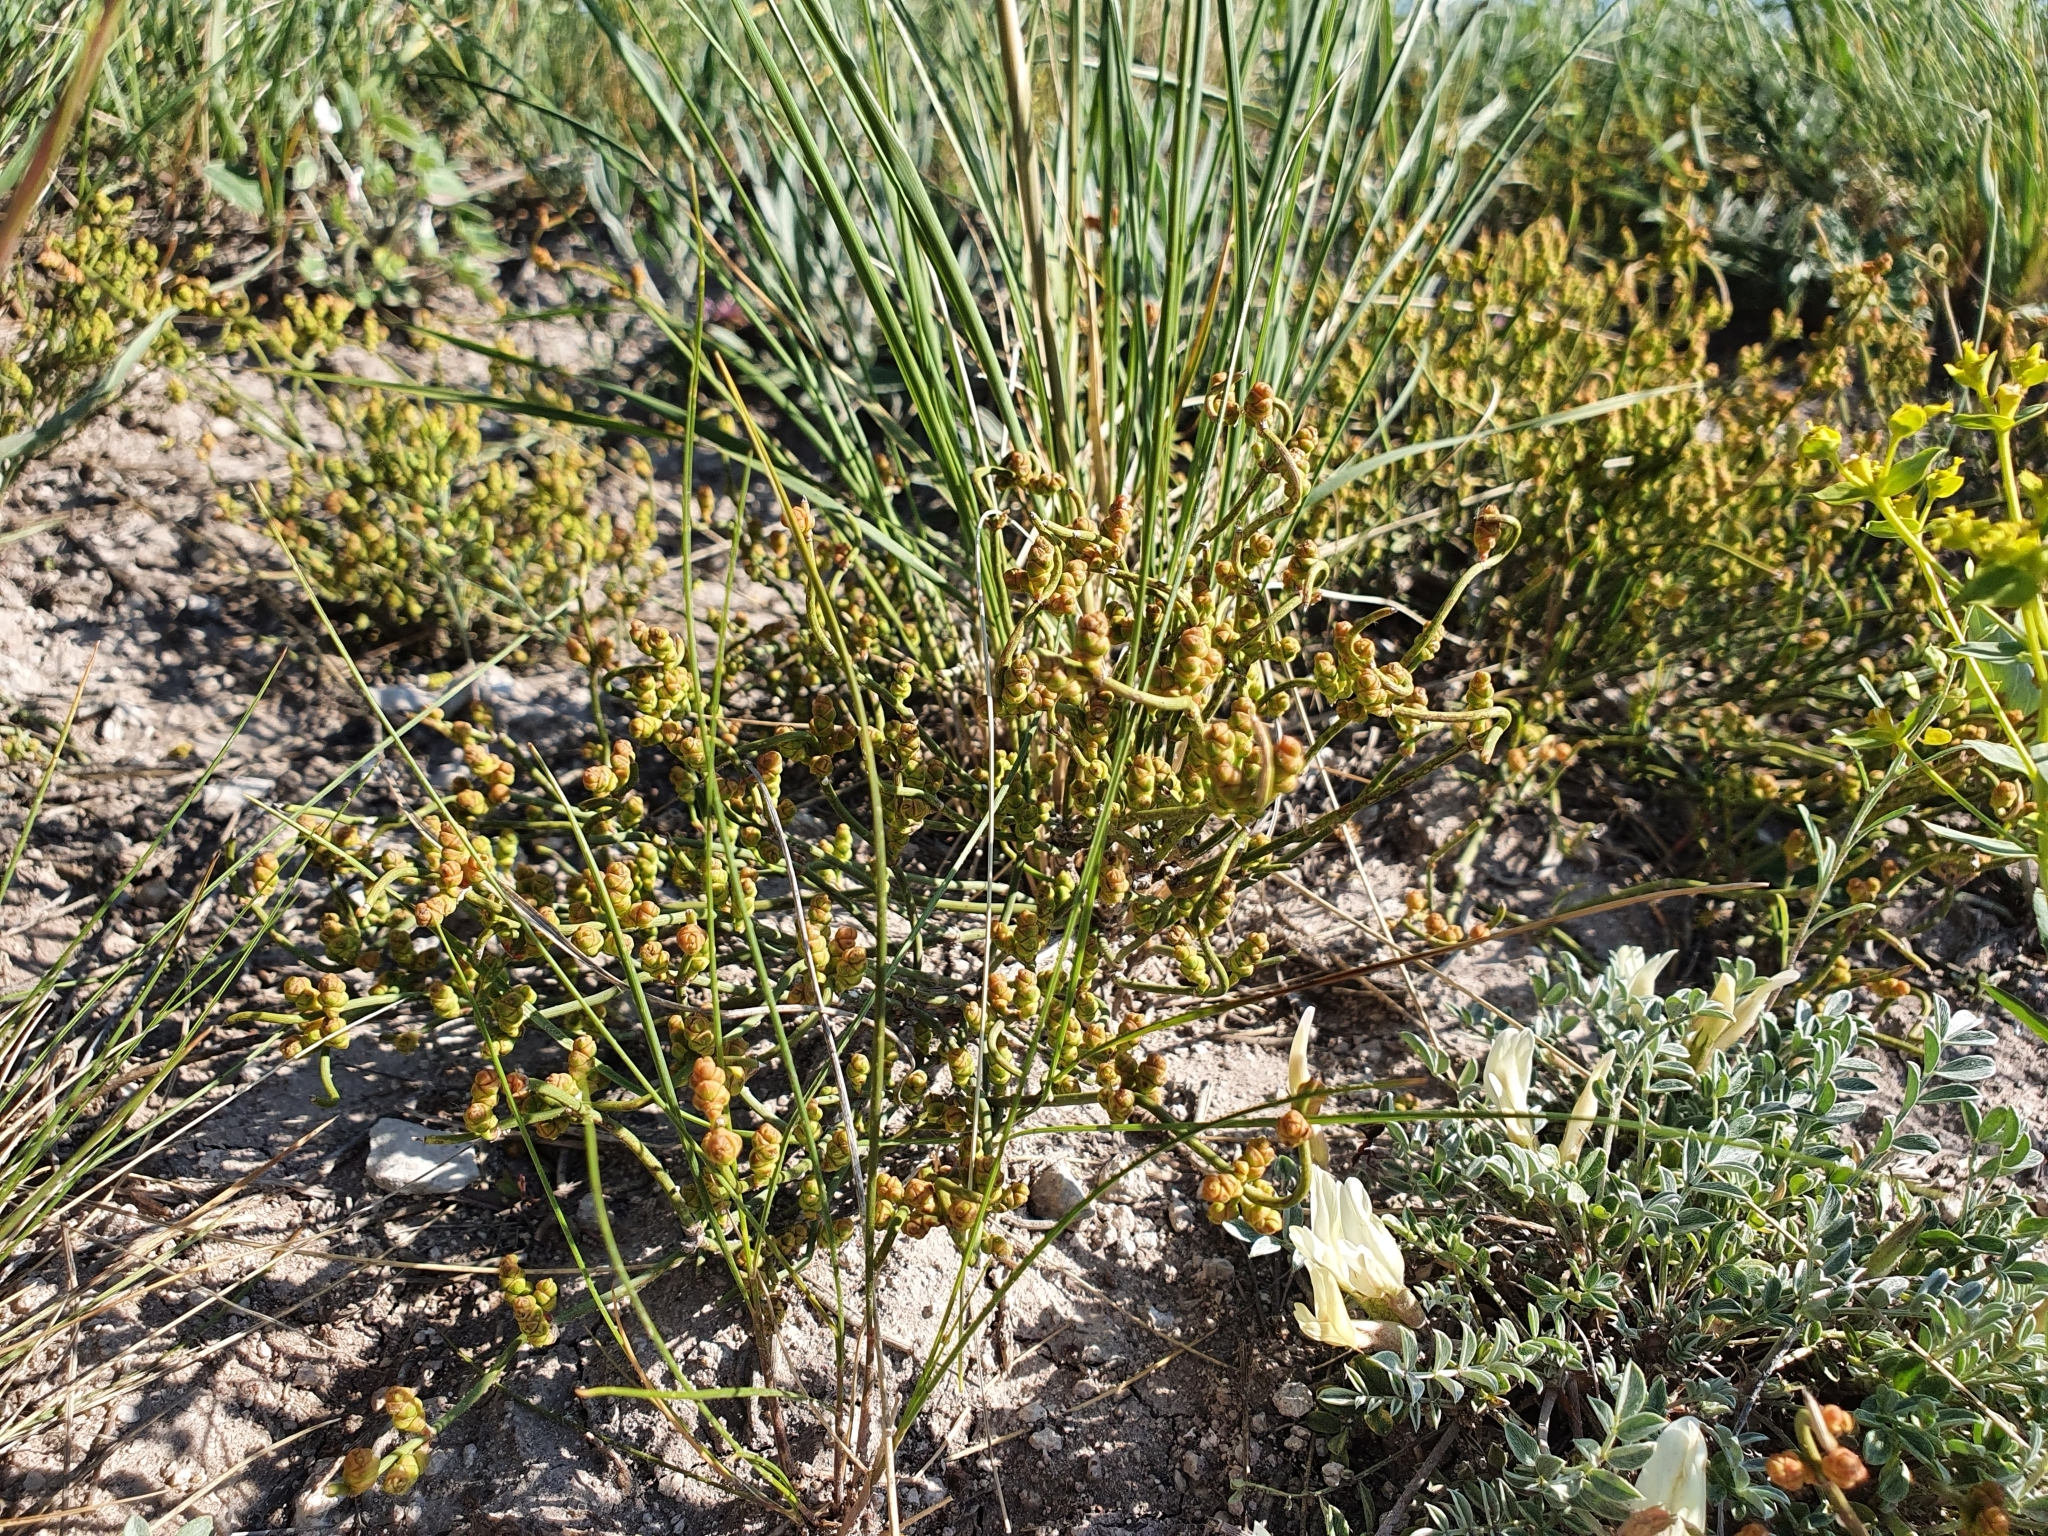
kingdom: Plantae
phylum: Tracheophyta
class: Gnetopsida
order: Ephedrales
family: Ephedraceae
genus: Ephedra
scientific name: Ephedra distachya
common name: Sea grape
